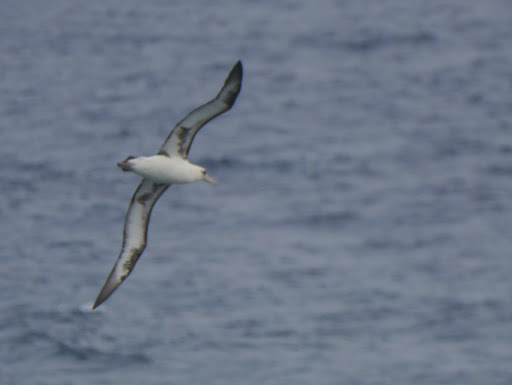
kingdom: Animalia
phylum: Chordata
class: Aves
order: Procellariiformes
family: Diomedeidae
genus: Phoebastria
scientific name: Phoebastria immutabilis
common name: Laysan albatross
